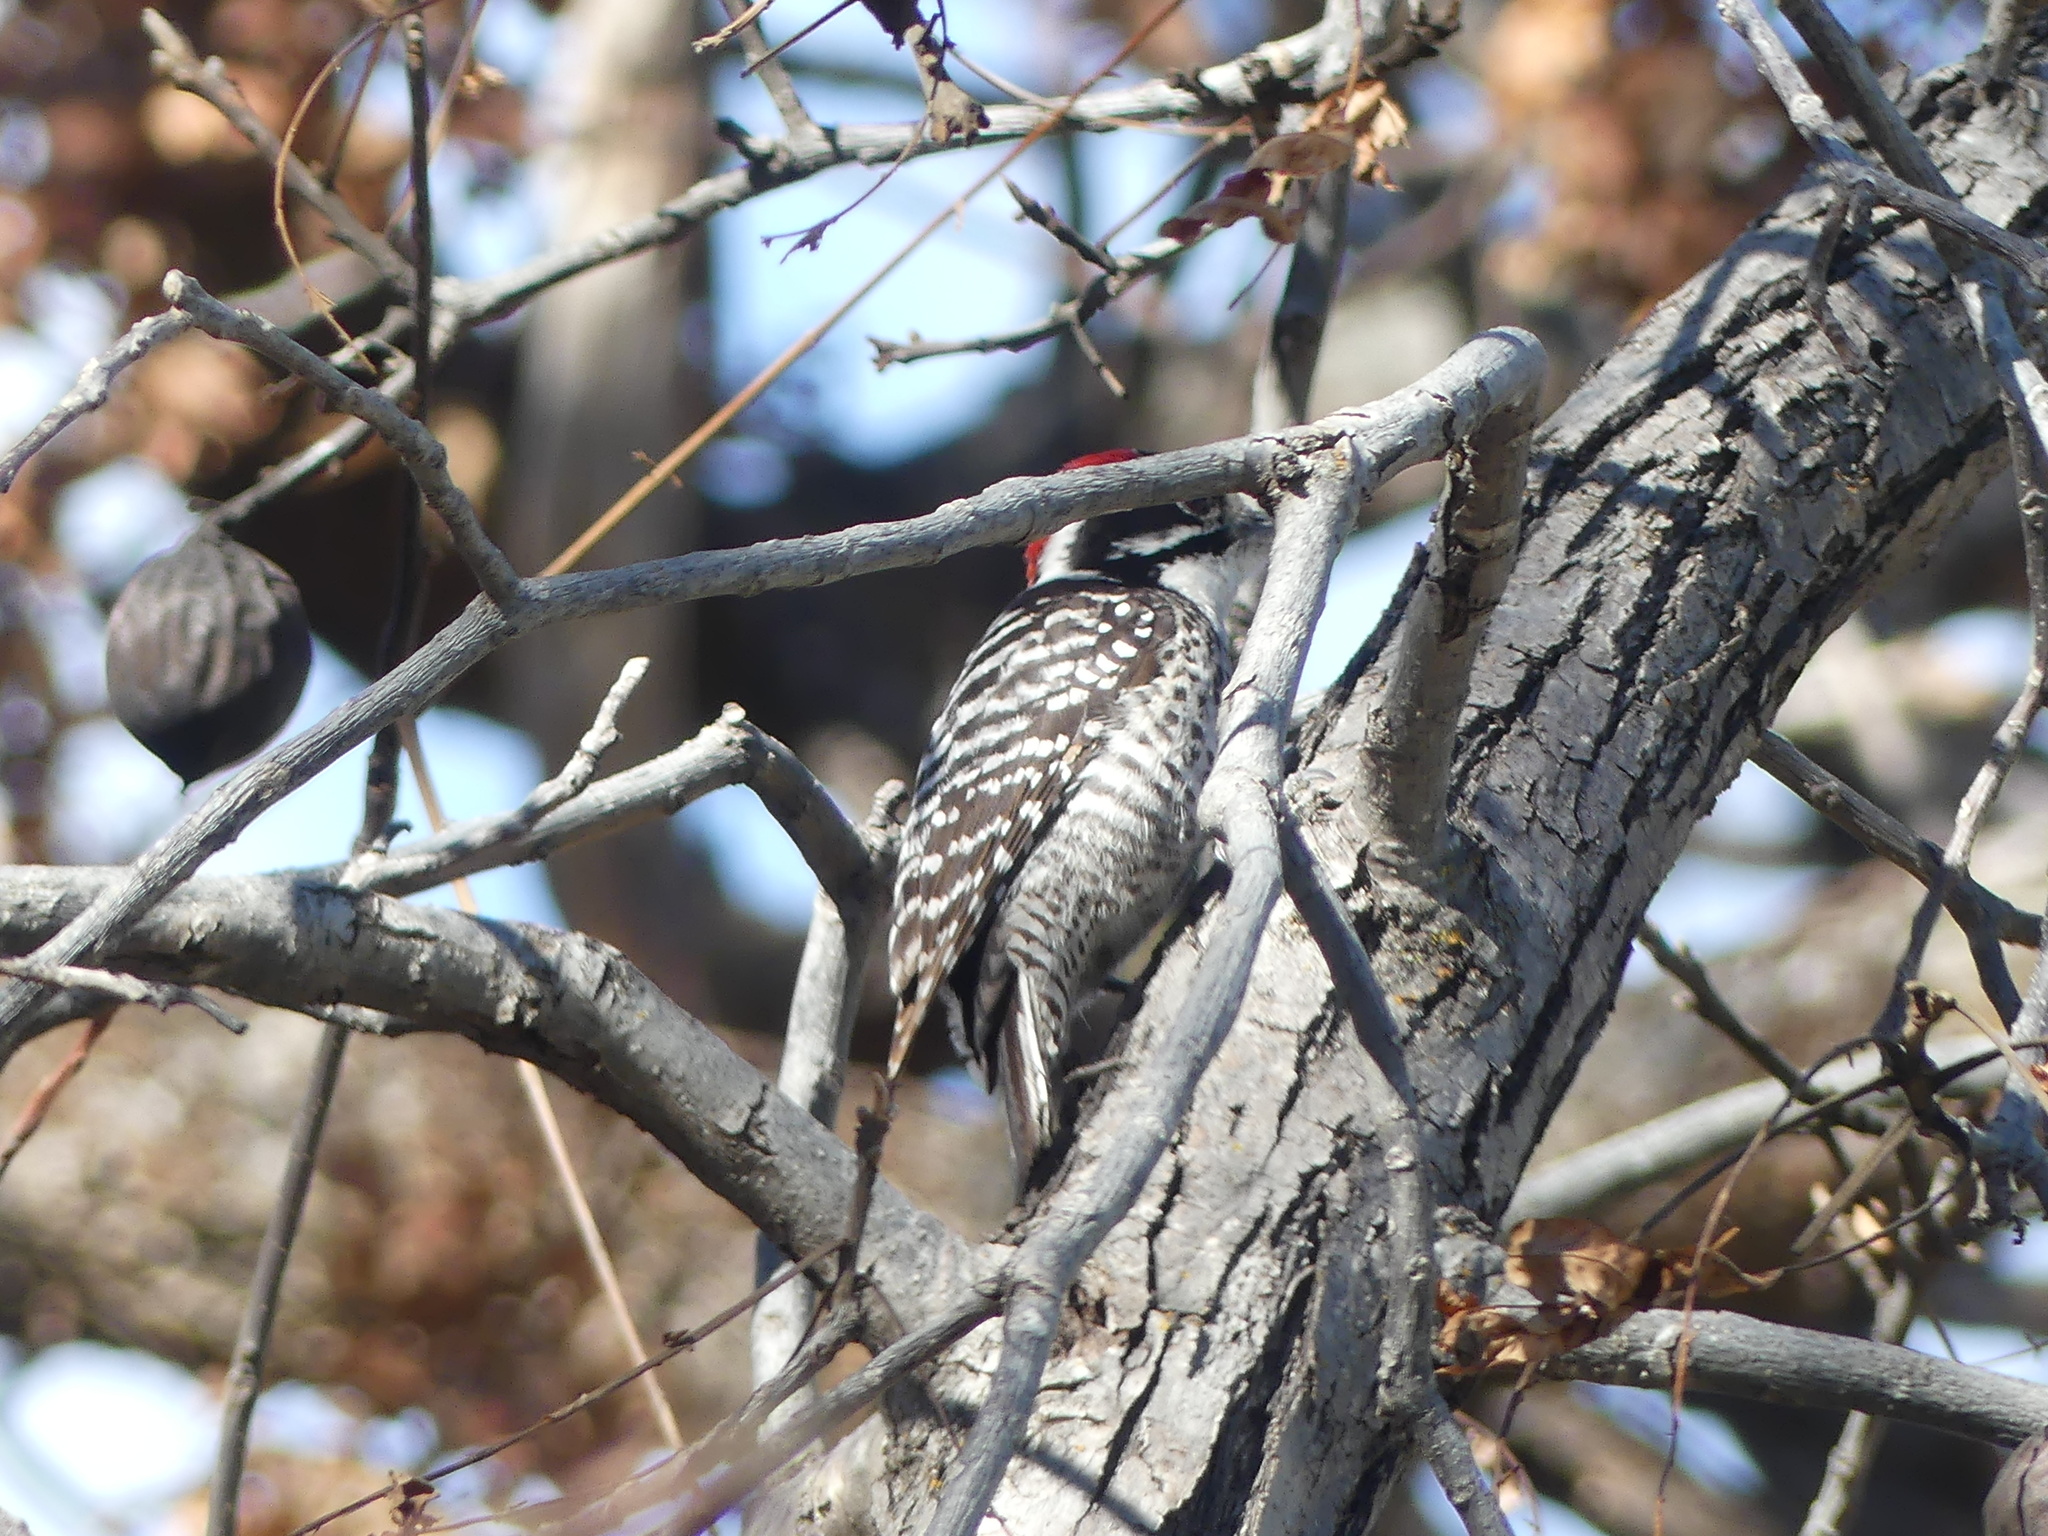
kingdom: Animalia
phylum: Chordata
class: Aves
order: Piciformes
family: Picidae
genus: Dryobates
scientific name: Dryobates nuttallii
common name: Nuttall's woodpecker
